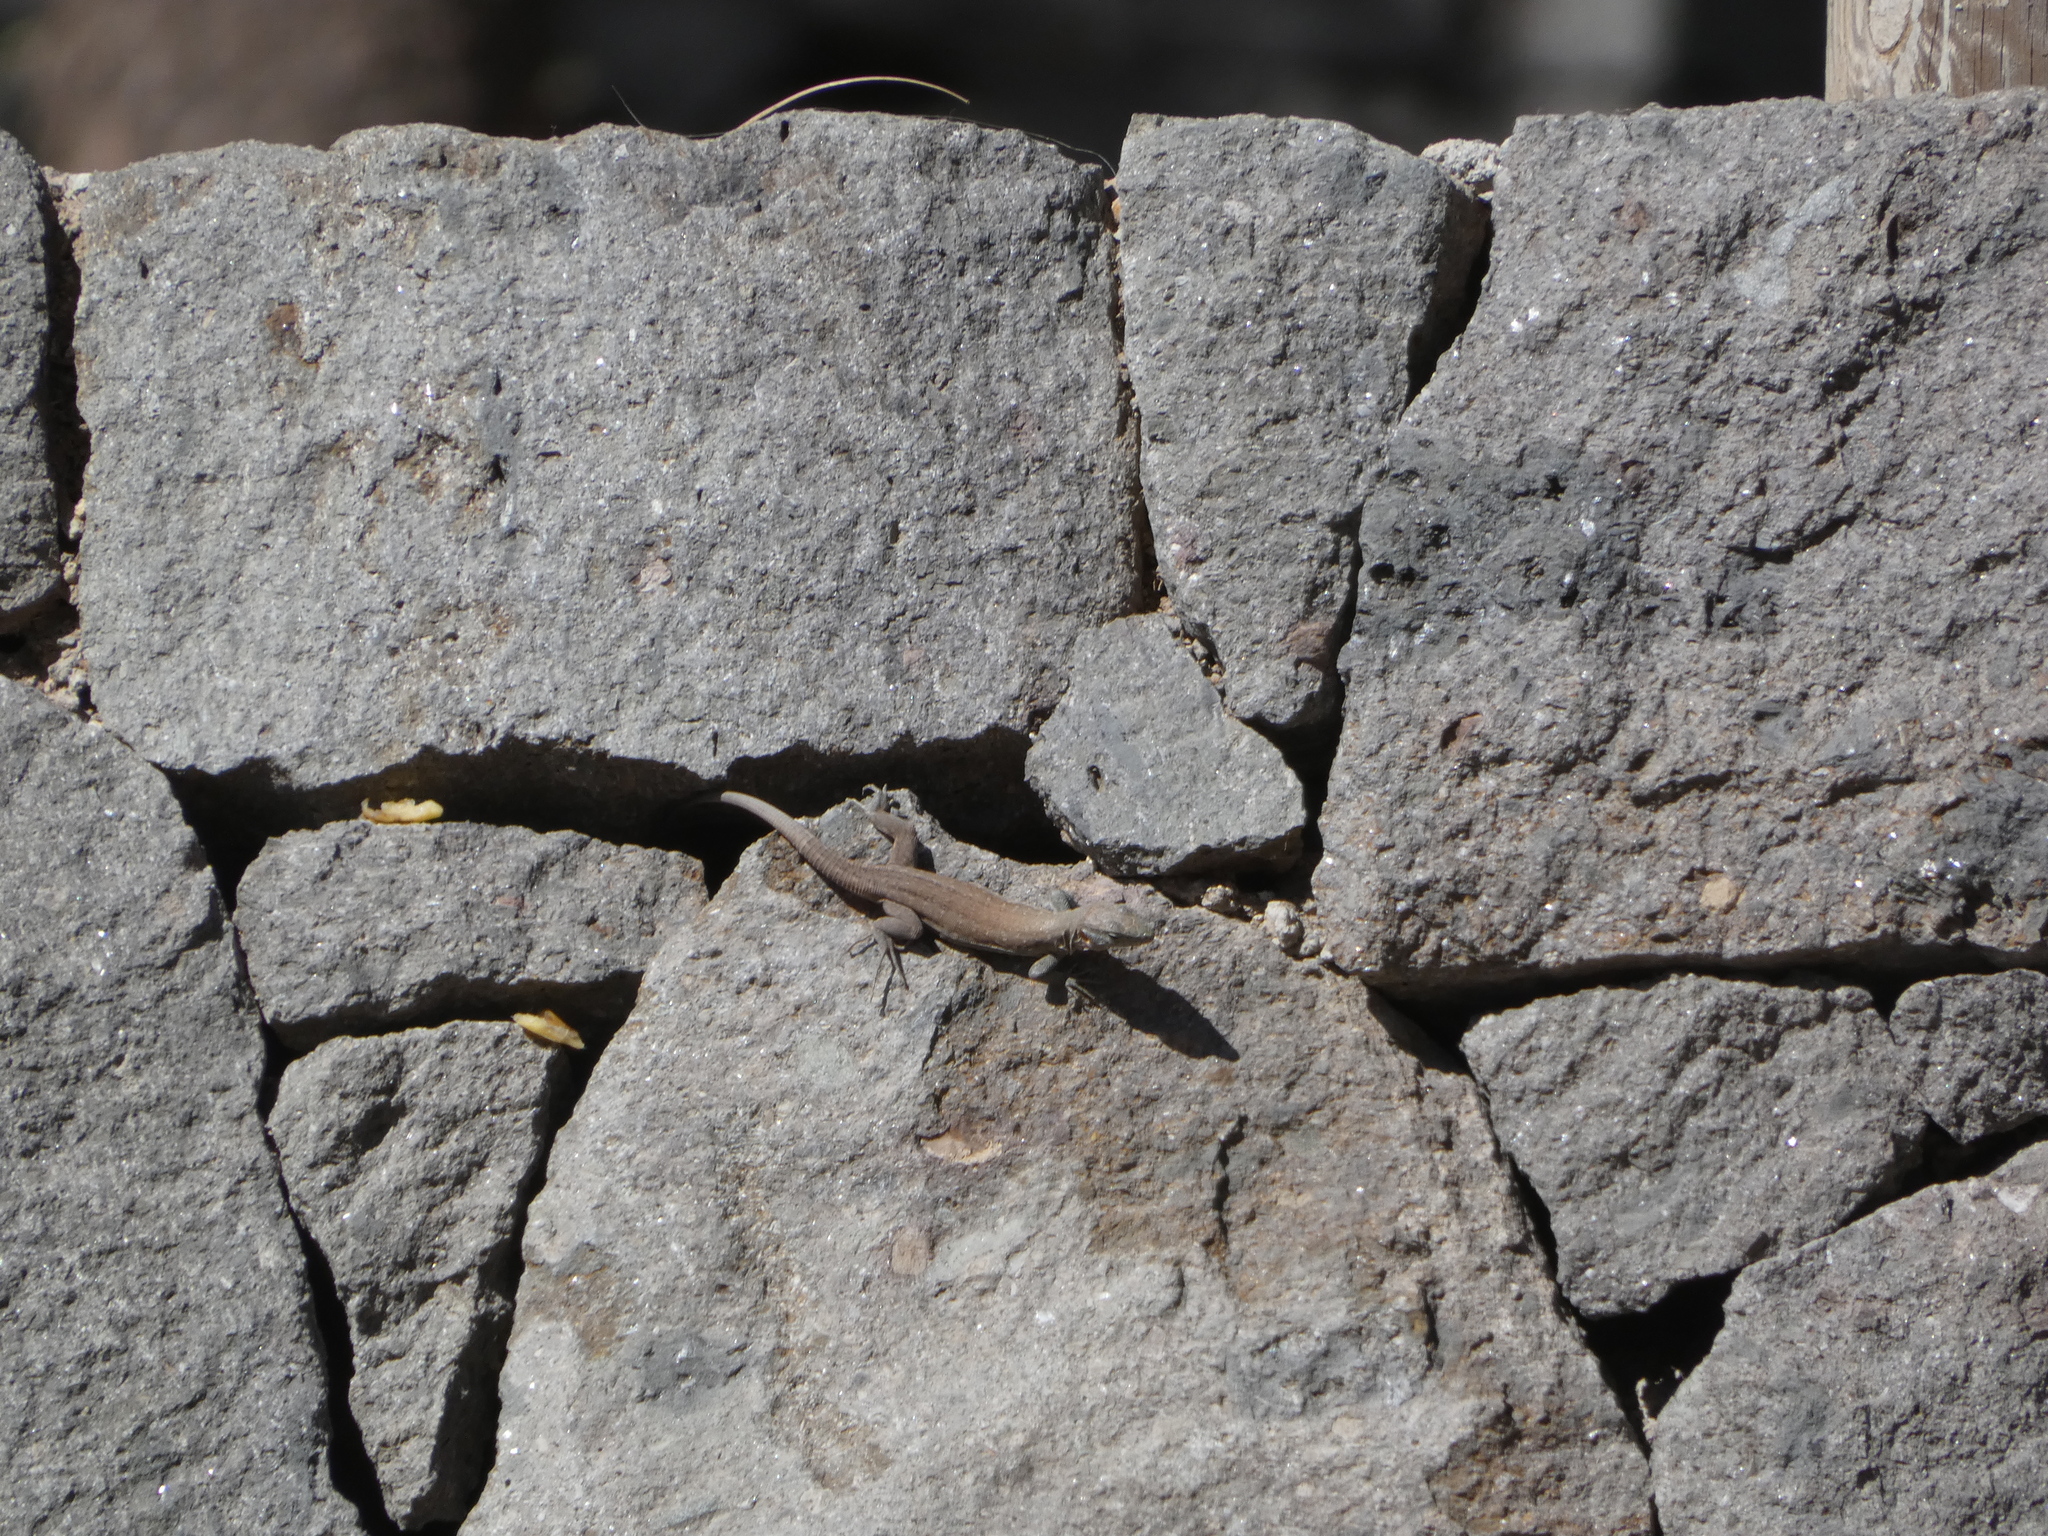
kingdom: Animalia
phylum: Chordata
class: Squamata
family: Lacertidae
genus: Gallotia
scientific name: Gallotia stehlini
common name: Gran canaria giant lizard
